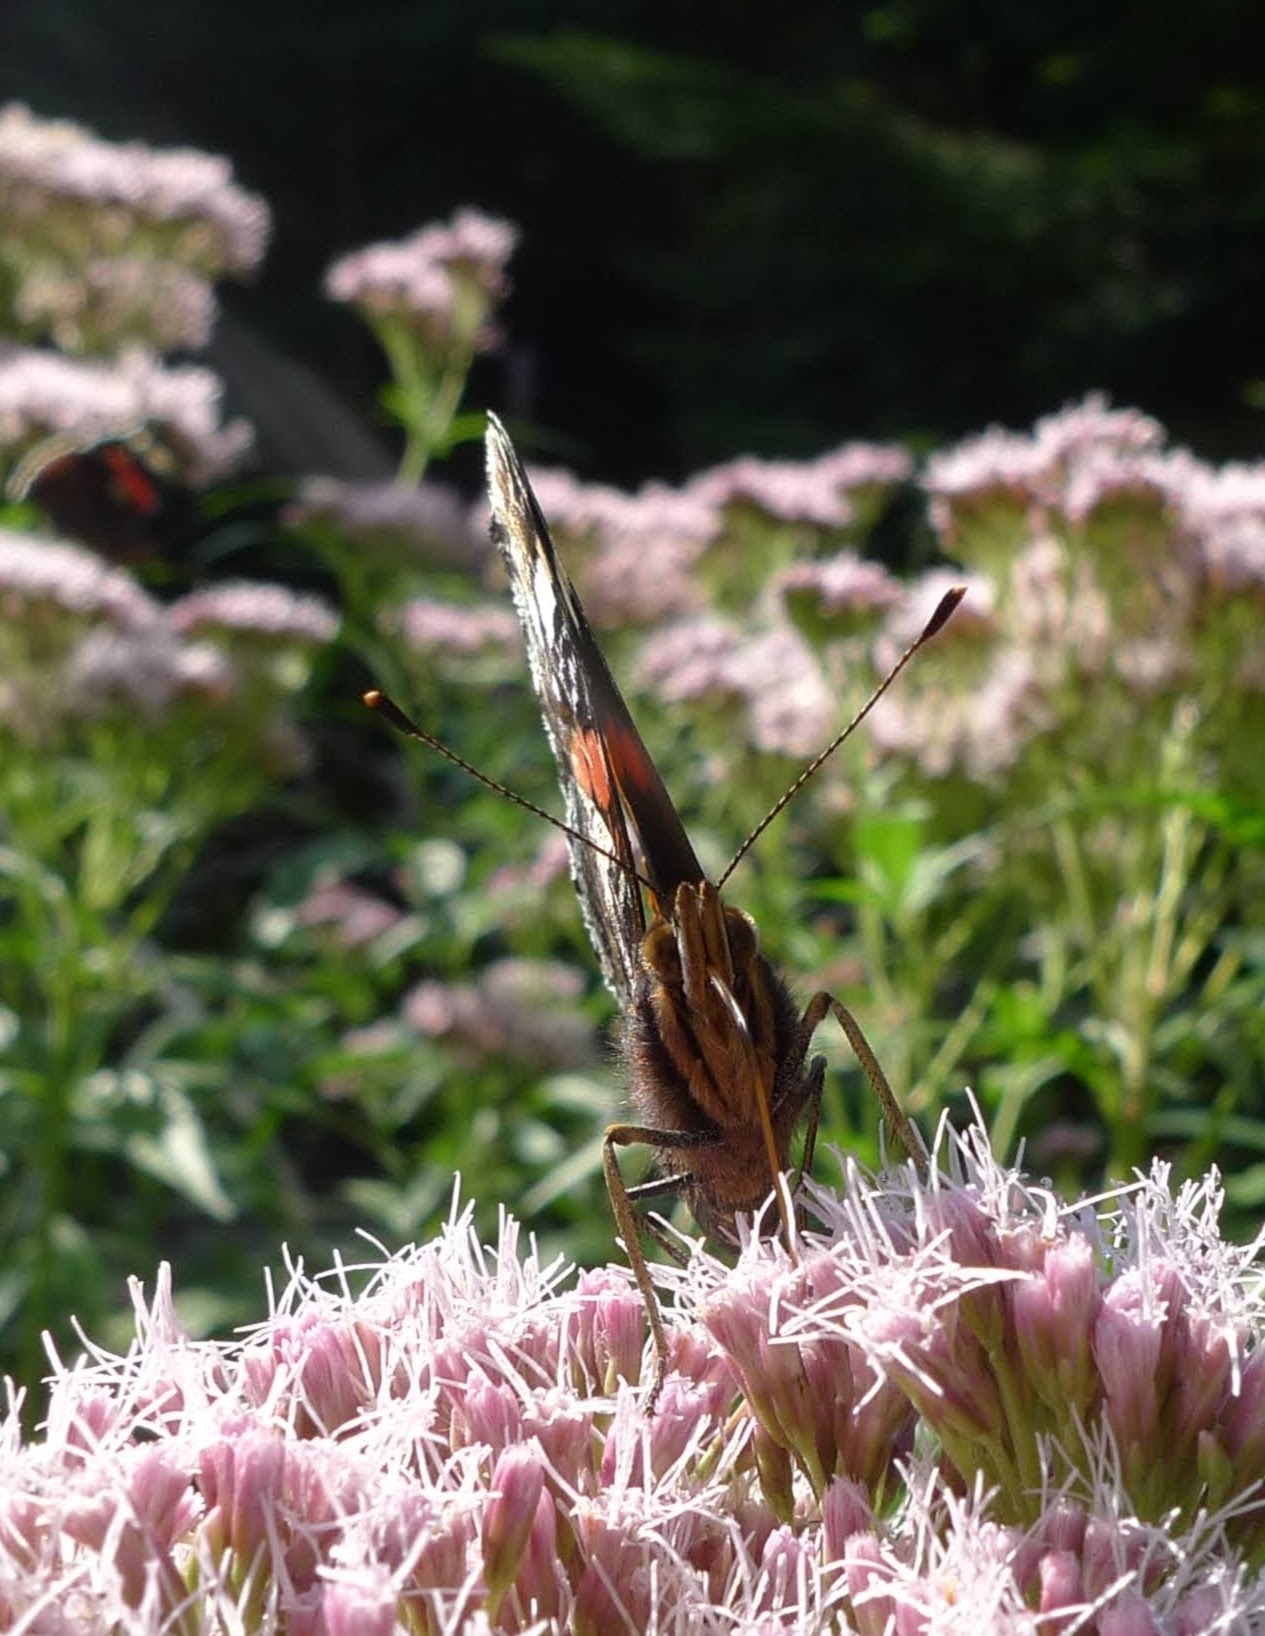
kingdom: Animalia
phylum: Arthropoda
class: Insecta
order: Lepidoptera
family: Nymphalidae
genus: Vanessa
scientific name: Vanessa atalanta
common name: Red admiral
